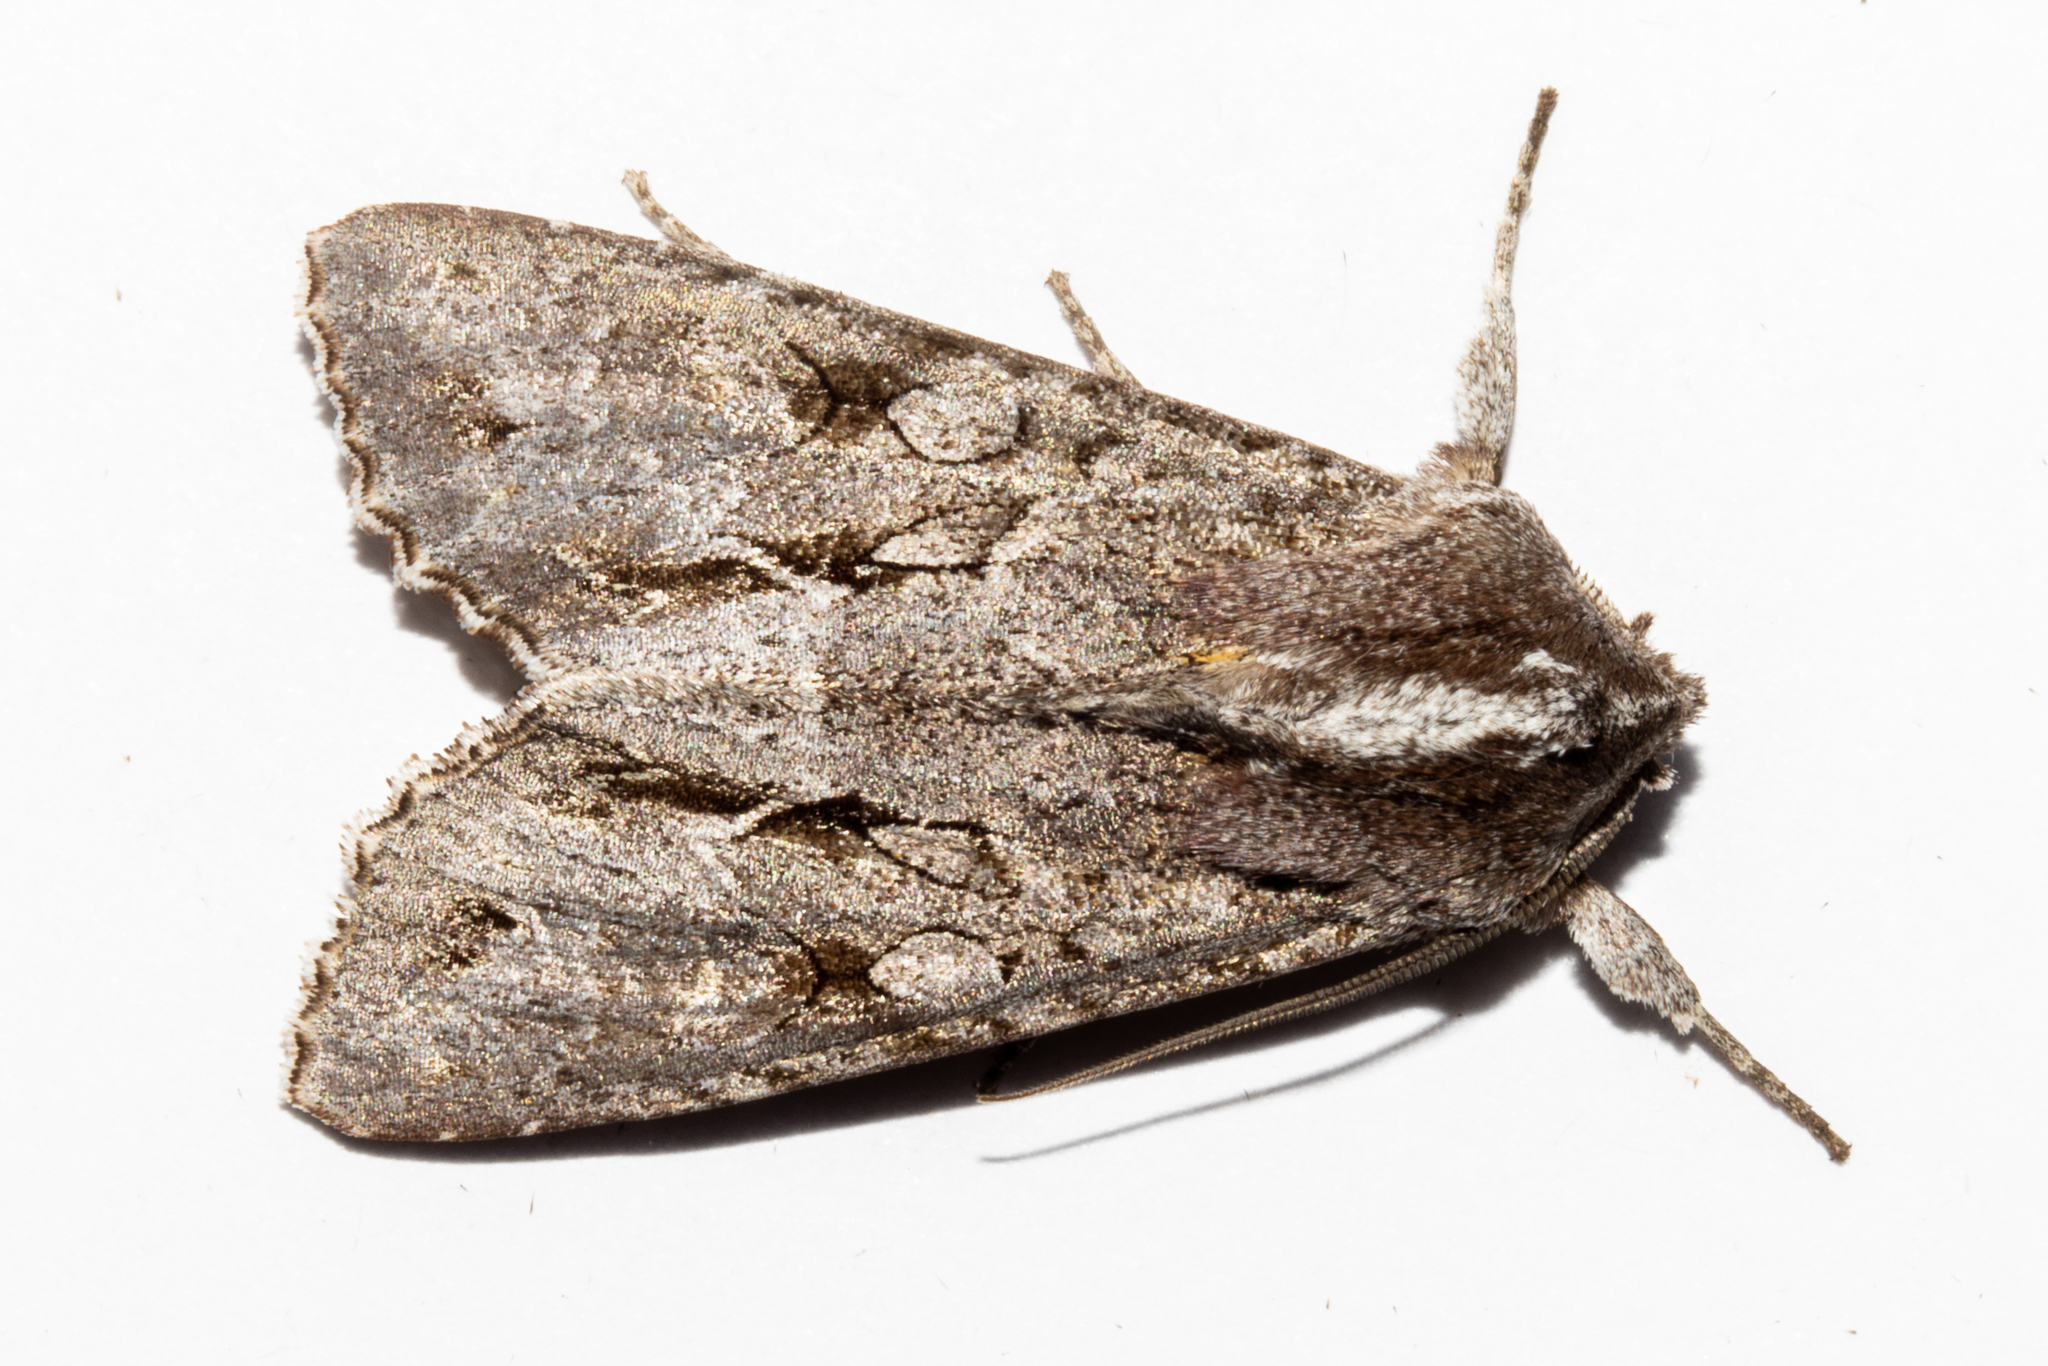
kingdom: Animalia
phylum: Arthropoda
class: Insecta
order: Lepidoptera
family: Noctuidae
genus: Ichneutica
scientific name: Ichneutica
